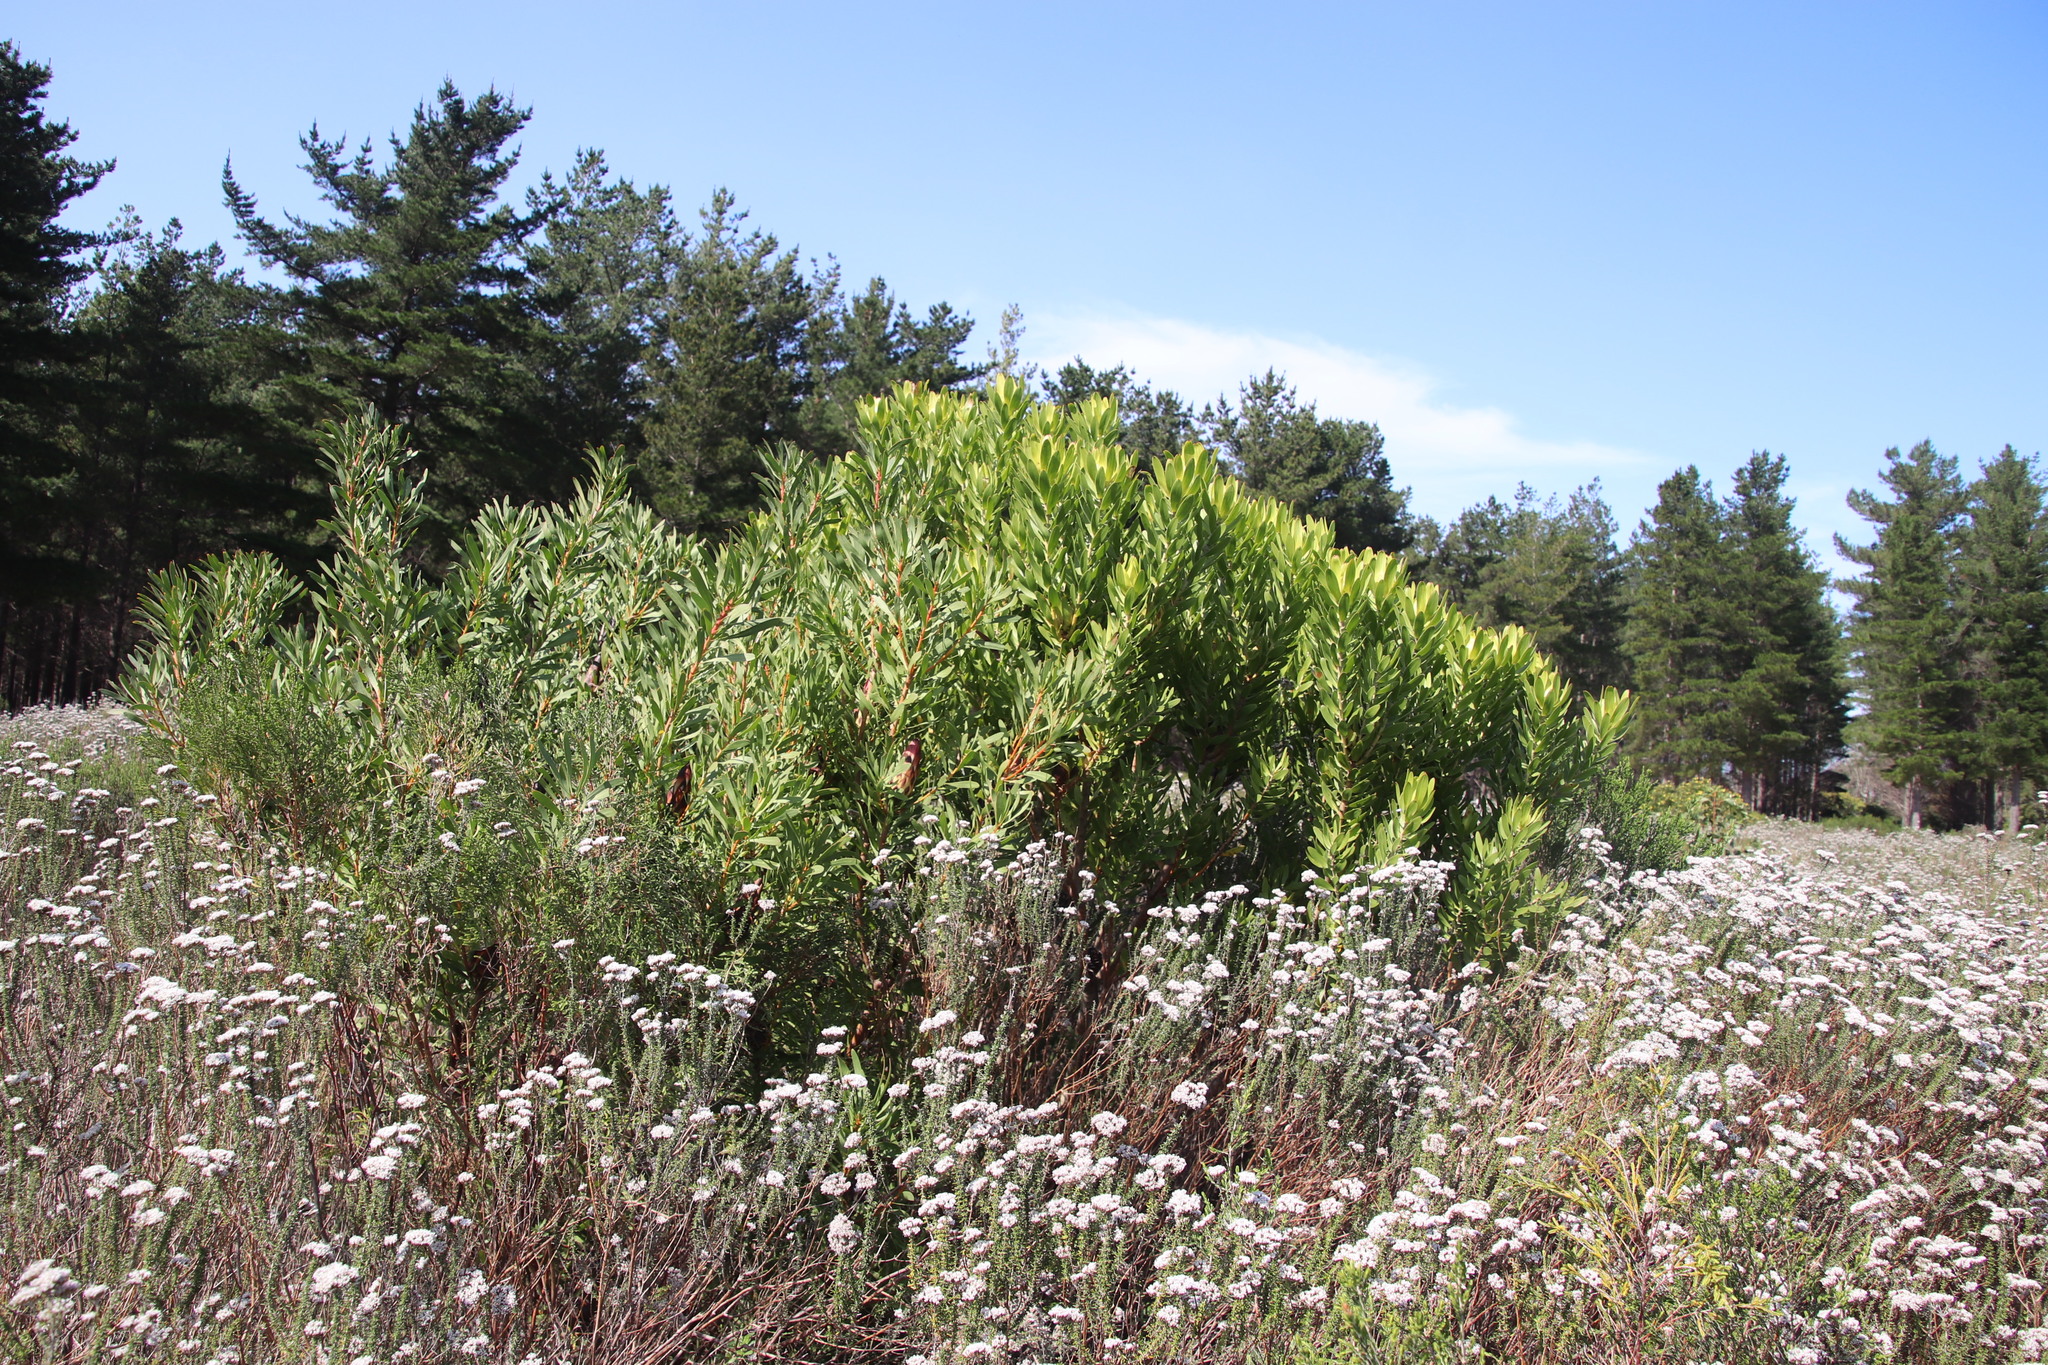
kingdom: Plantae
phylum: Tracheophyta
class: Magnoliopsida
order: Proteales
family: Proteaceae
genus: Protea
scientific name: Protea repens
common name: Sugarbush
